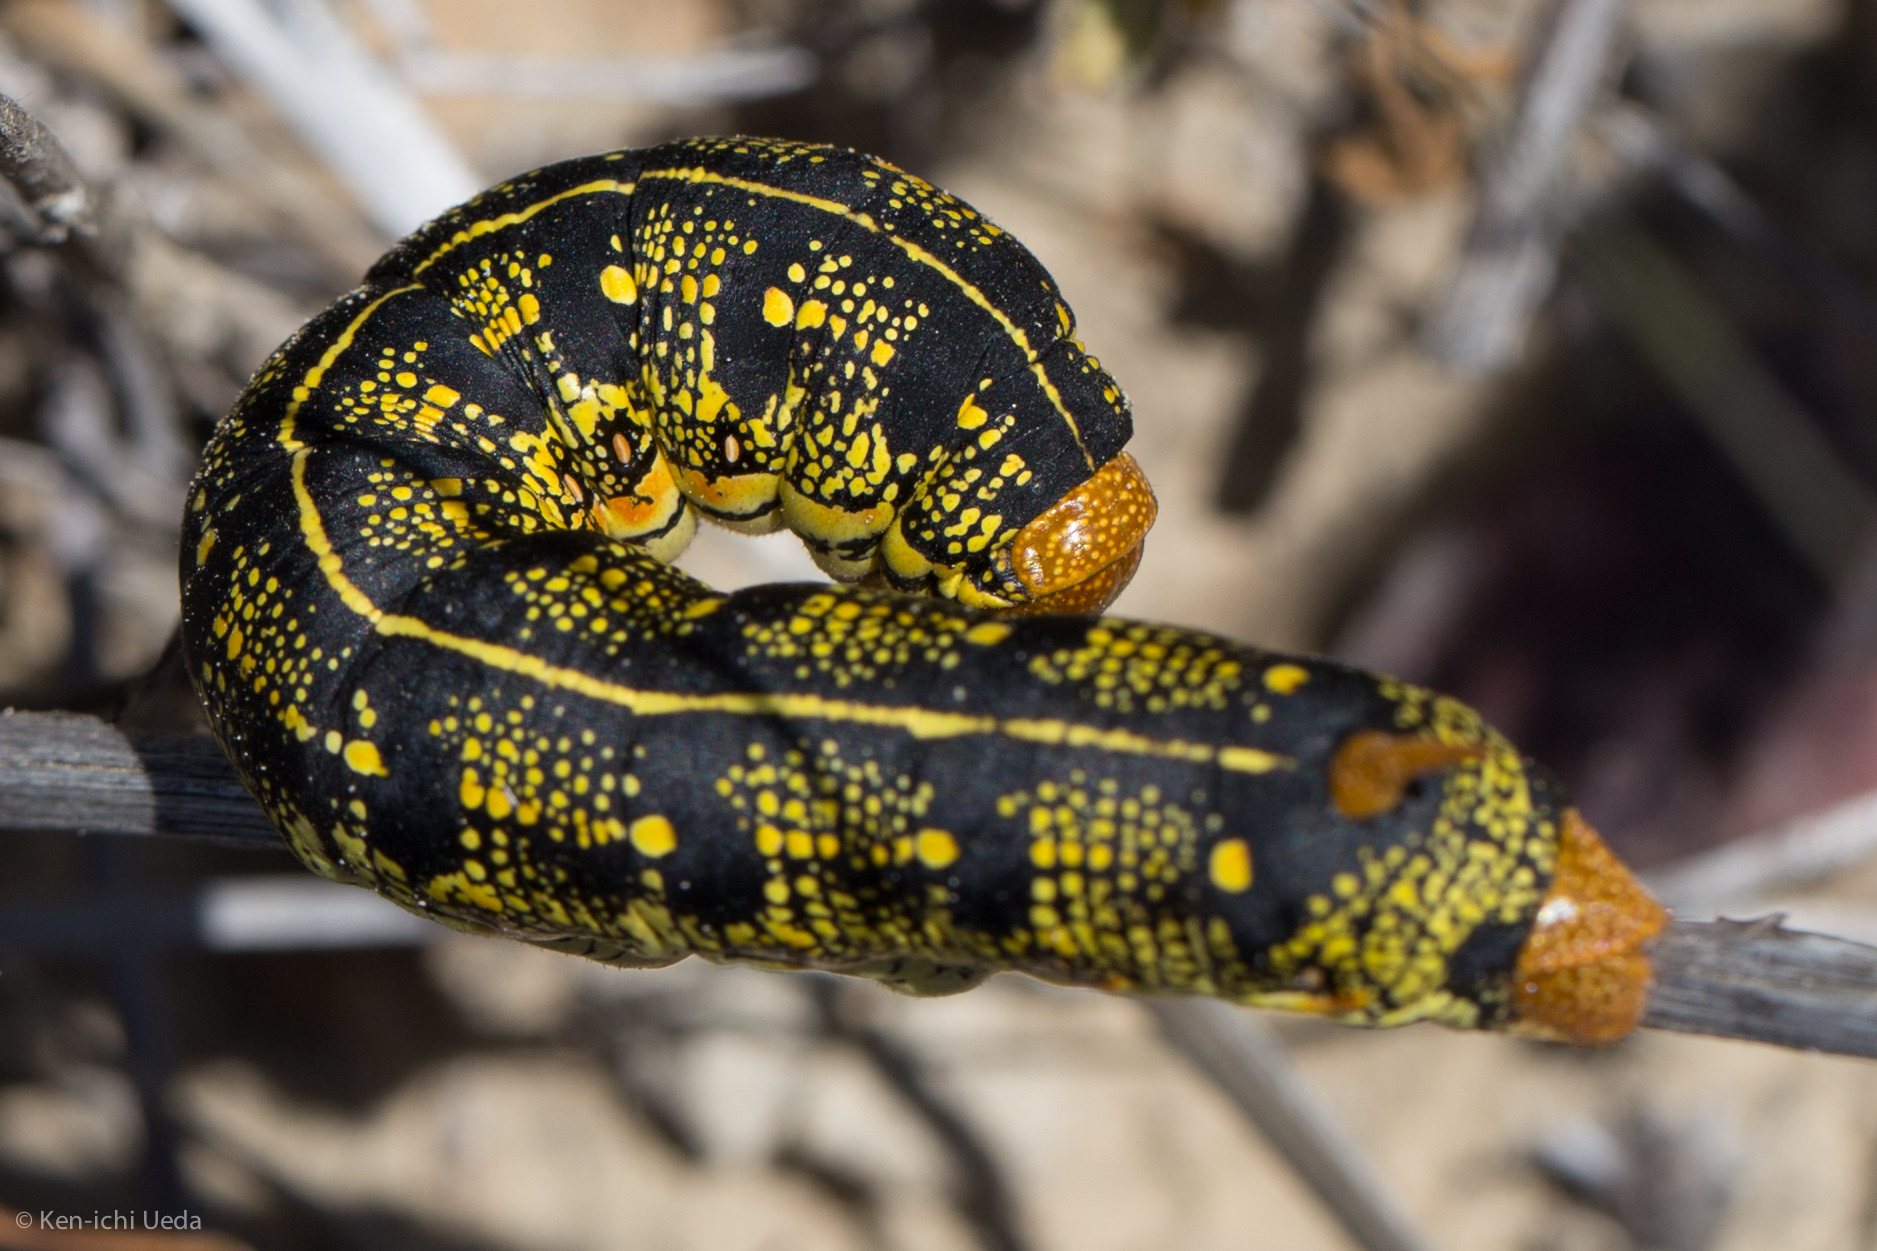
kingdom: Animalia
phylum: Arthropoda
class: Insecta
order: Lepidoptera
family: Sphingidae
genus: Hyles
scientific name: Hyles lineata
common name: White-lined sphinx
